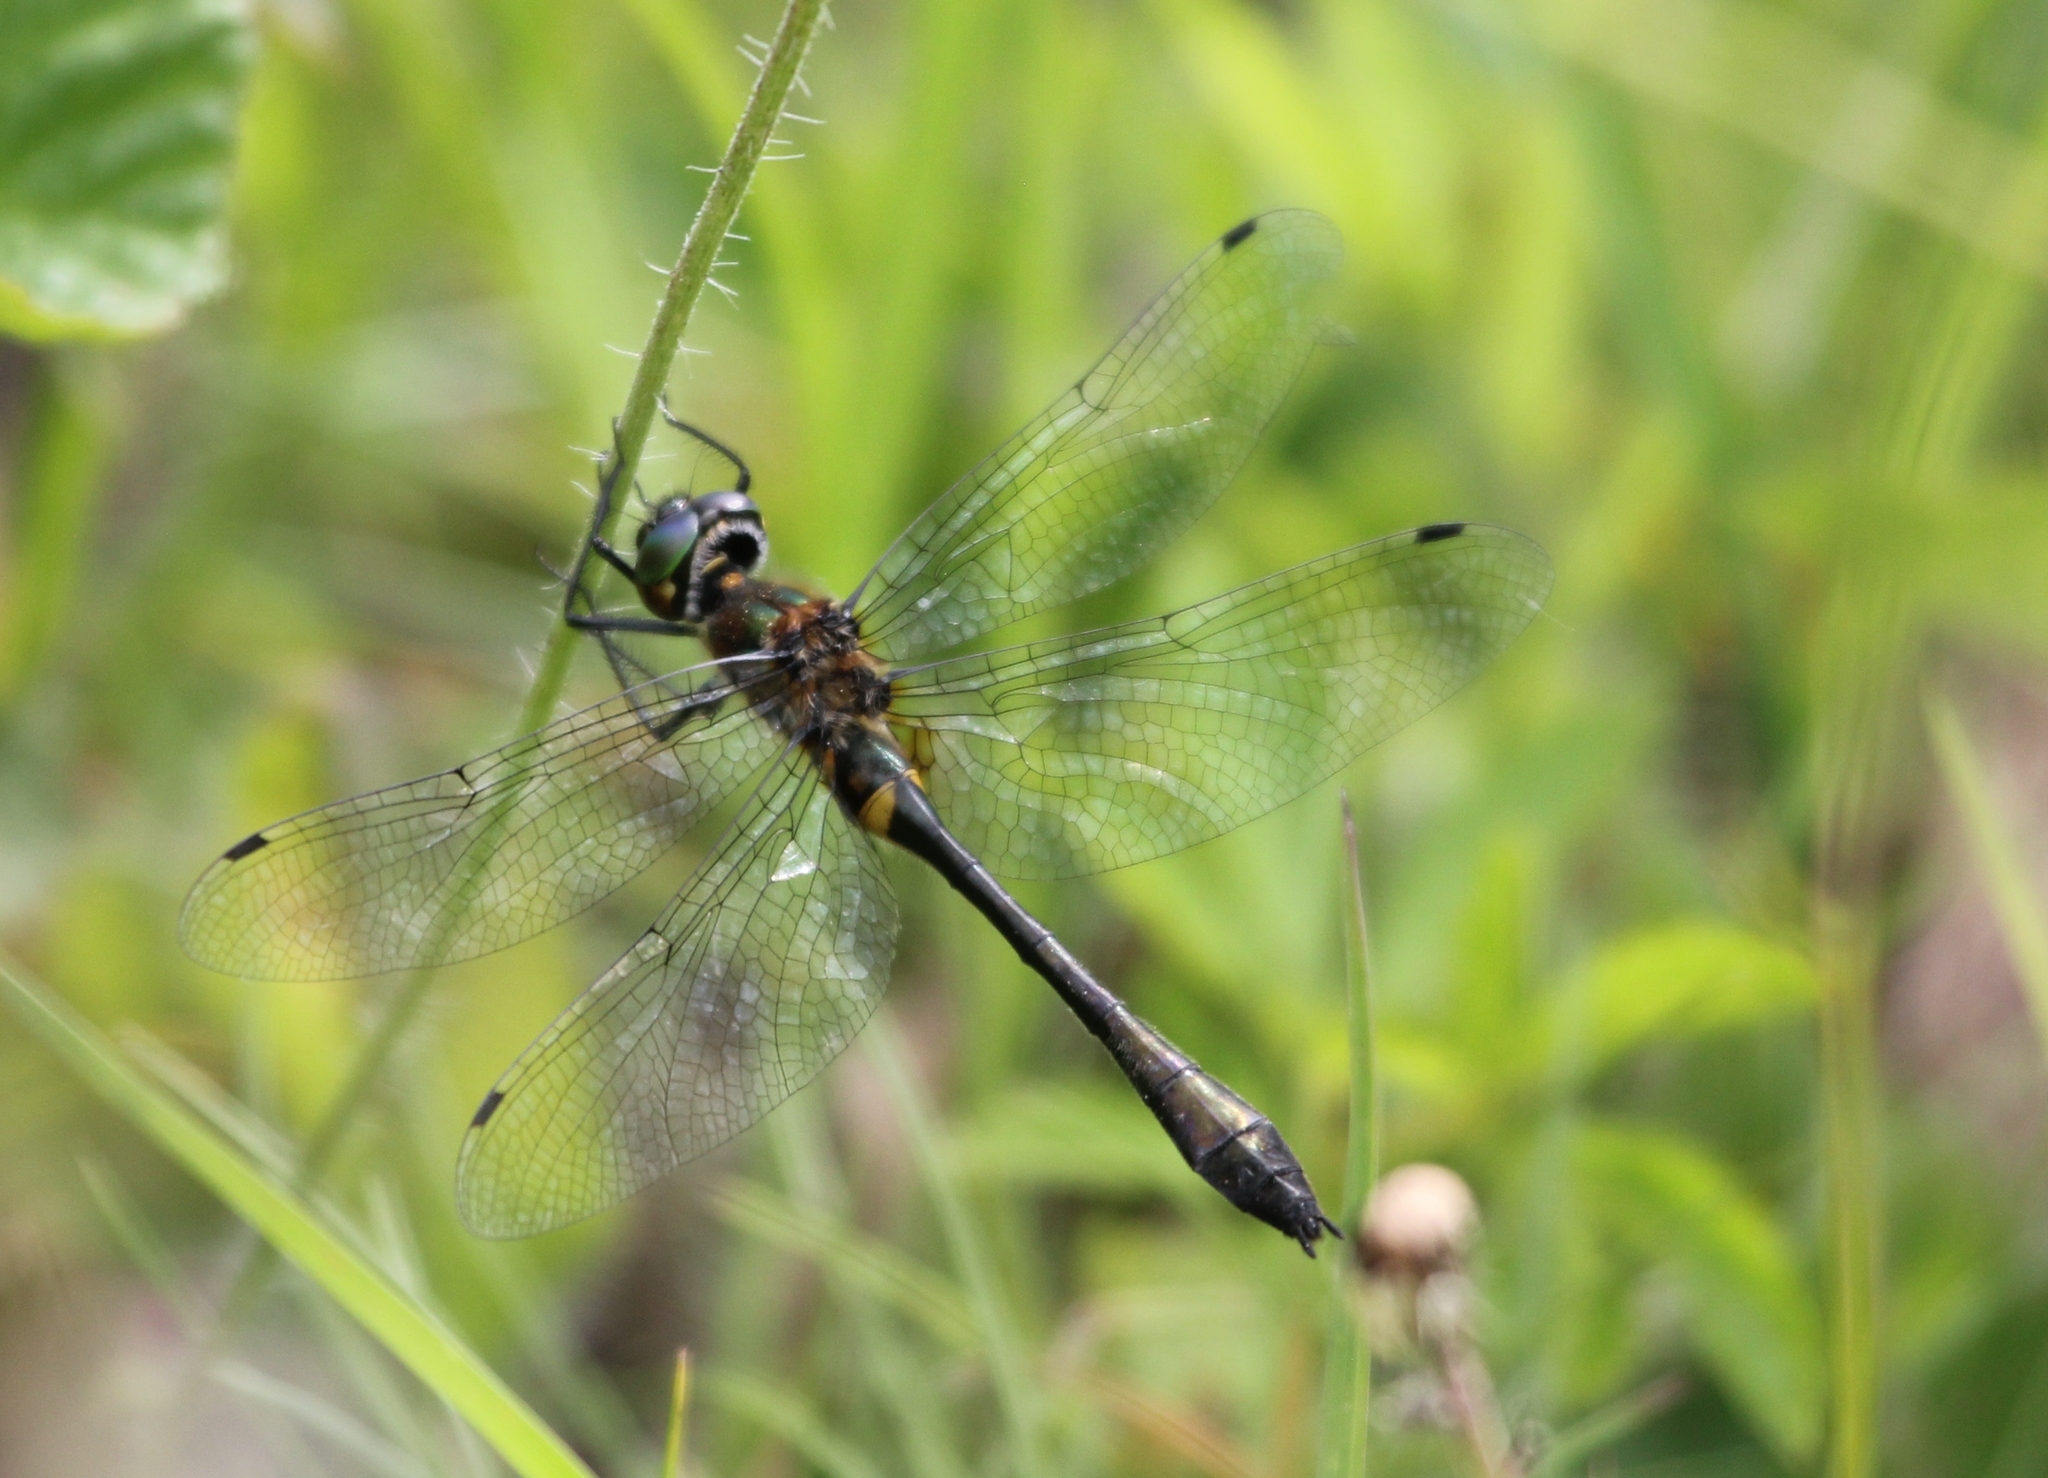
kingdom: Animalia
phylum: Arthropoda
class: Insecta
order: Odonata
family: Corduliidae
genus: Dorocordulia
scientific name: Dorocordulia libera
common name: Racket-tailed emerald
